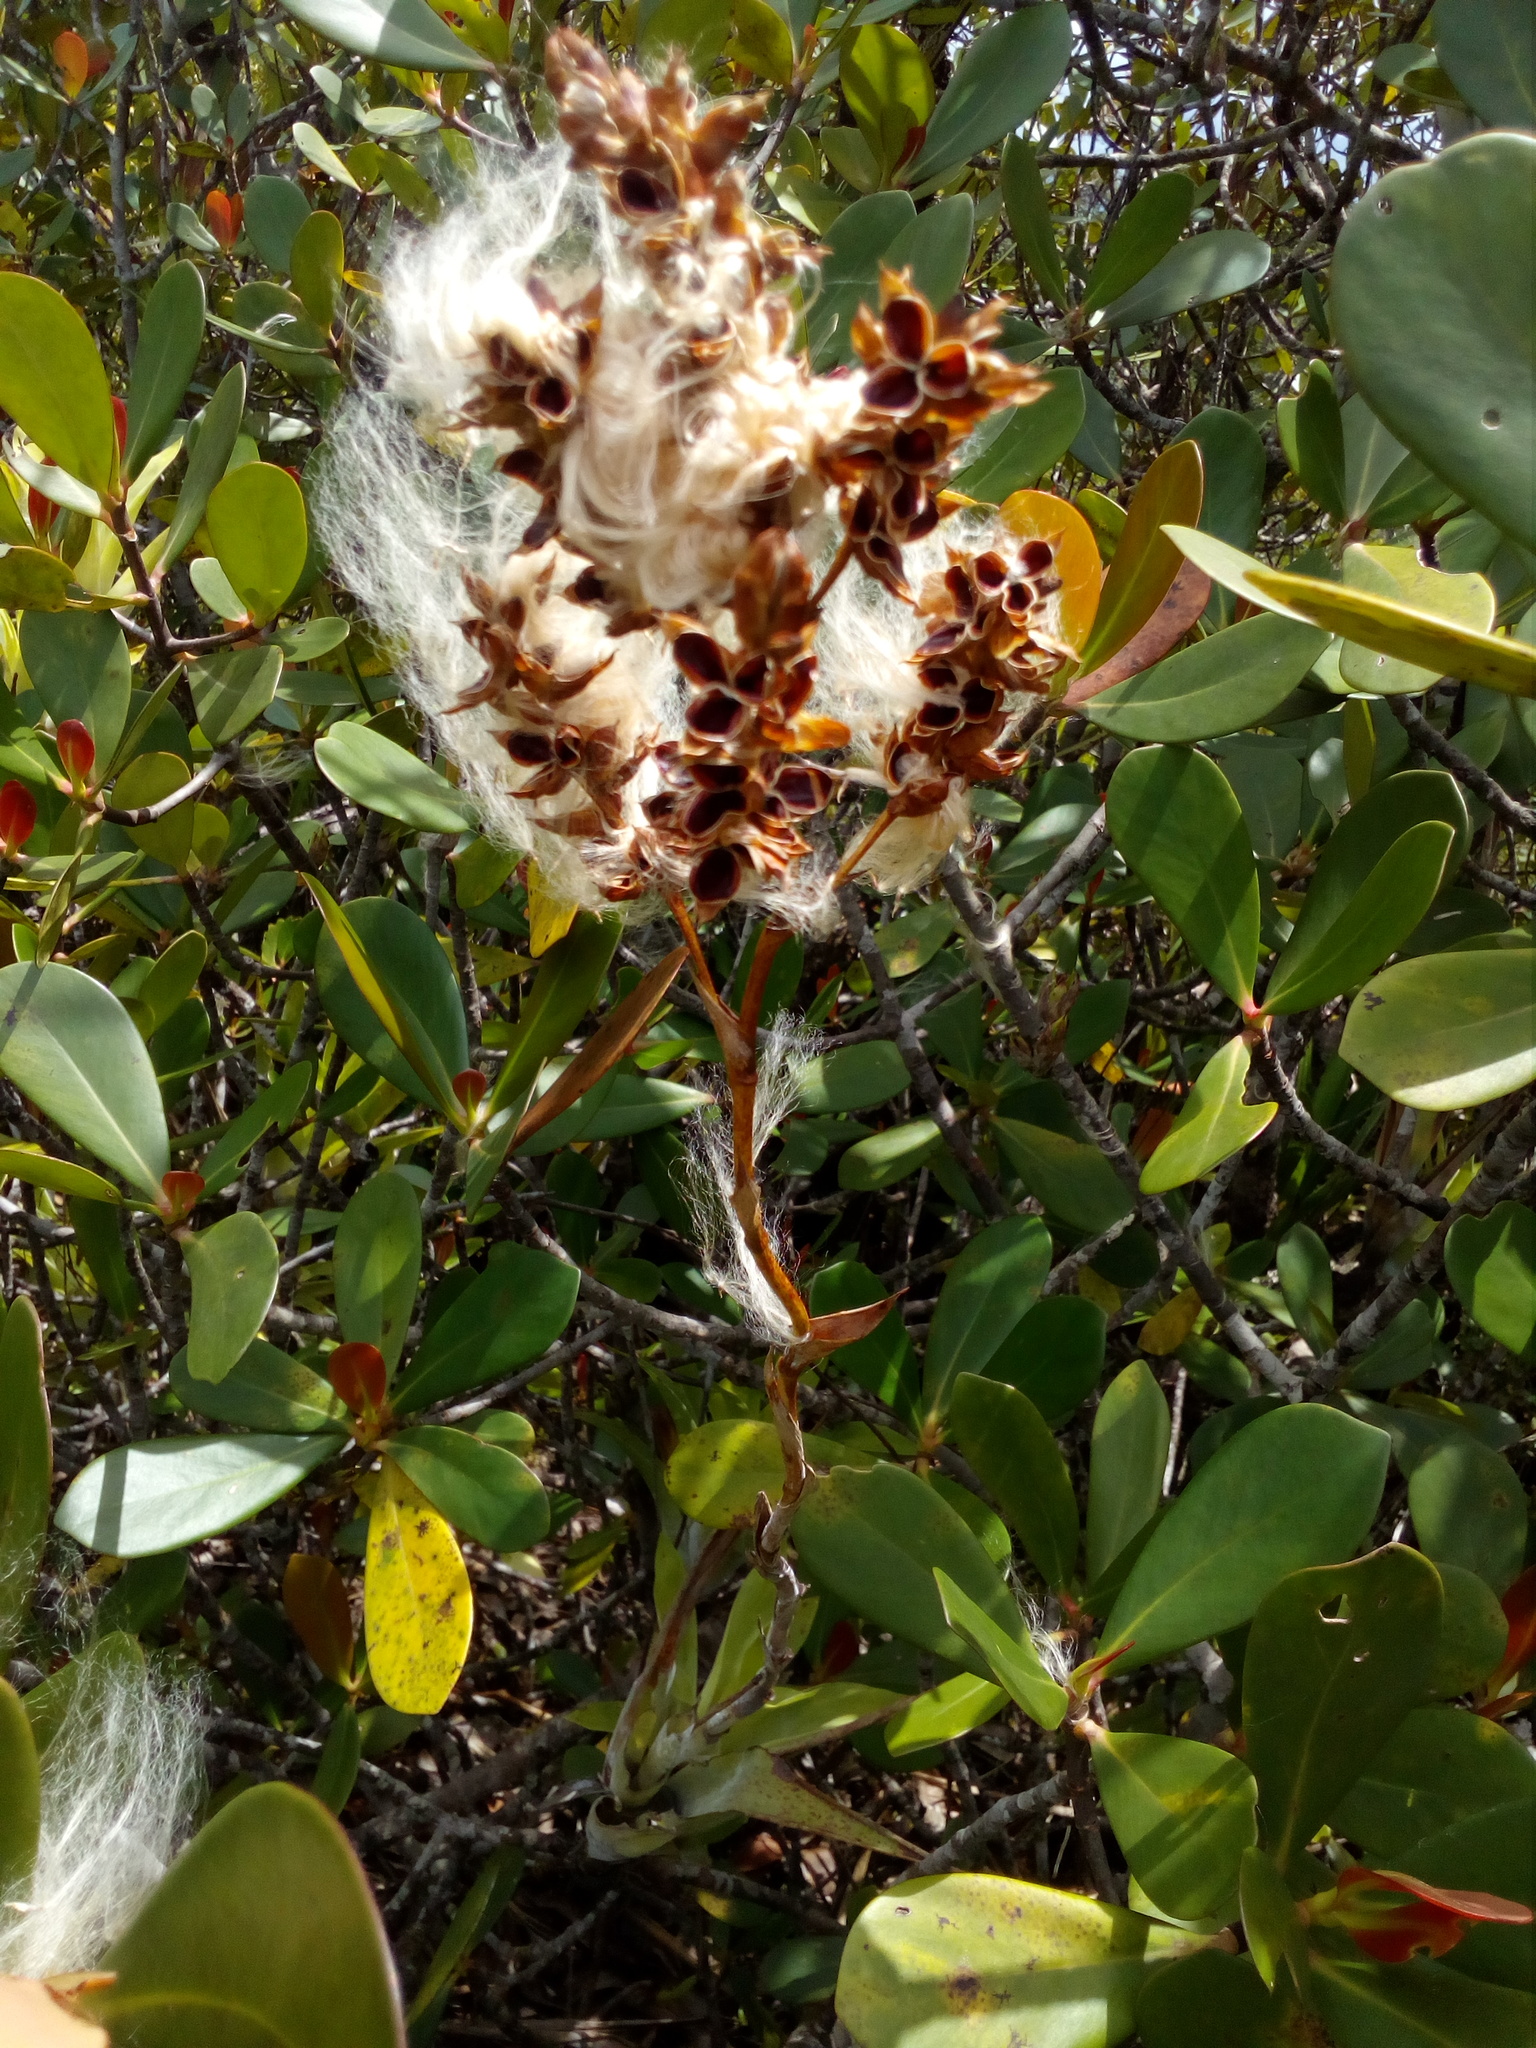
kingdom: Plantae
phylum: Tracheophyta
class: Liliopsida
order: Poales
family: Bromeliaceae
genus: Catopsis
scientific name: Catopsis berteroniana
